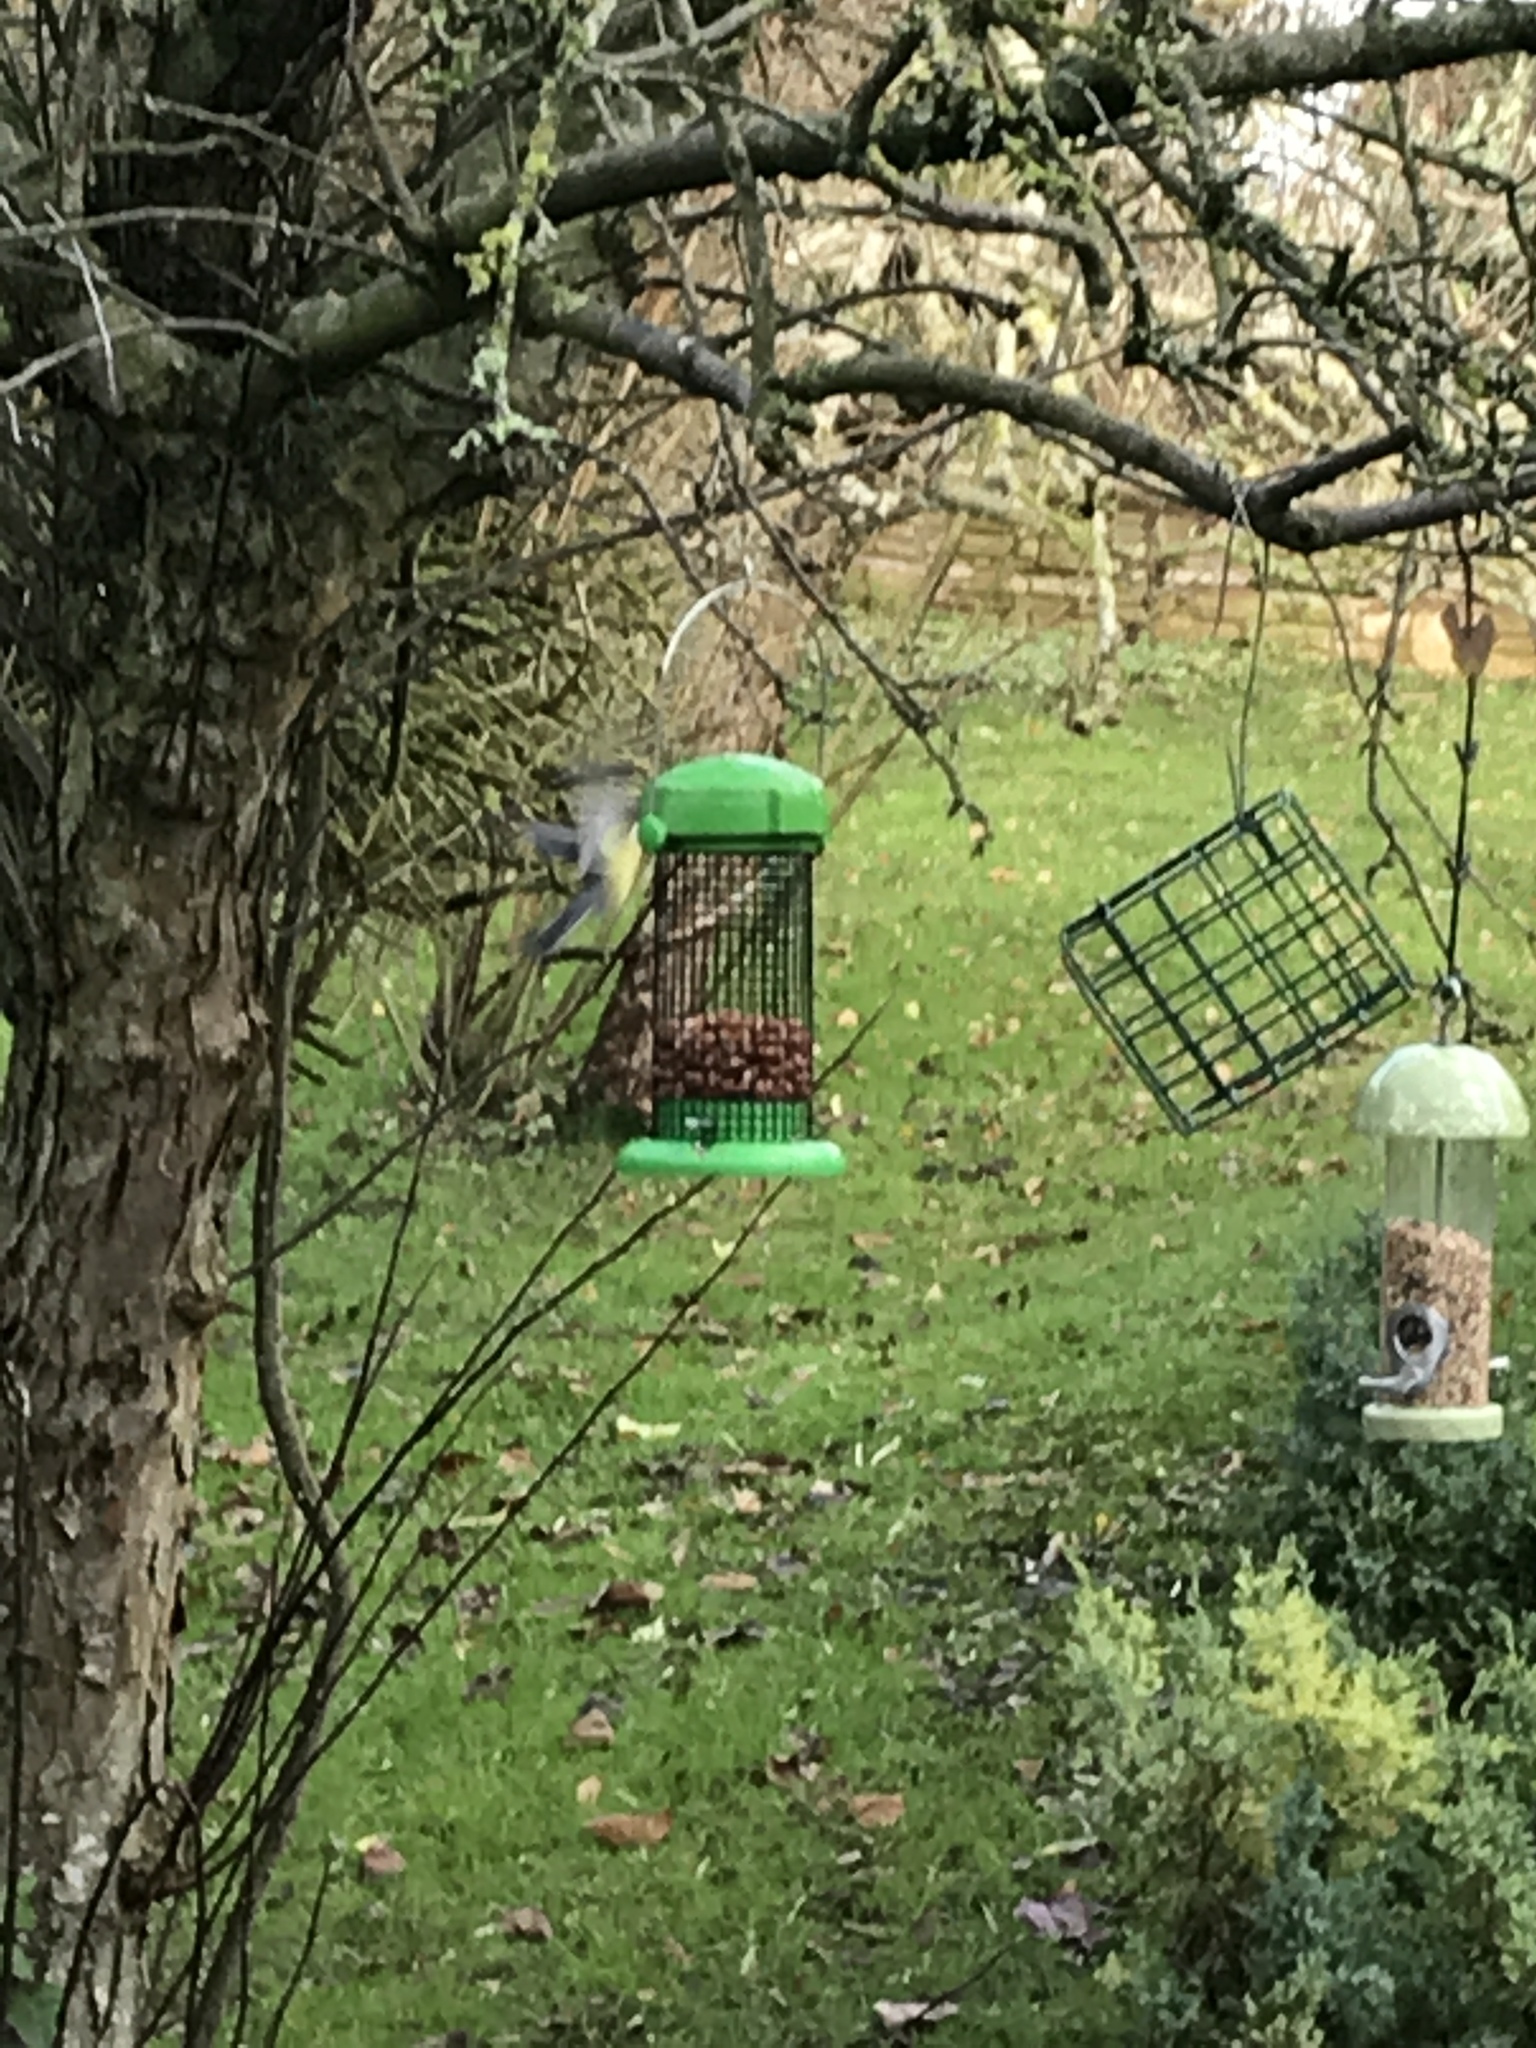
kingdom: Animalia
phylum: Chordata
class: Aves
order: Passeriformes
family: Paridae
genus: Parus
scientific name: Parus major
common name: Great tit
